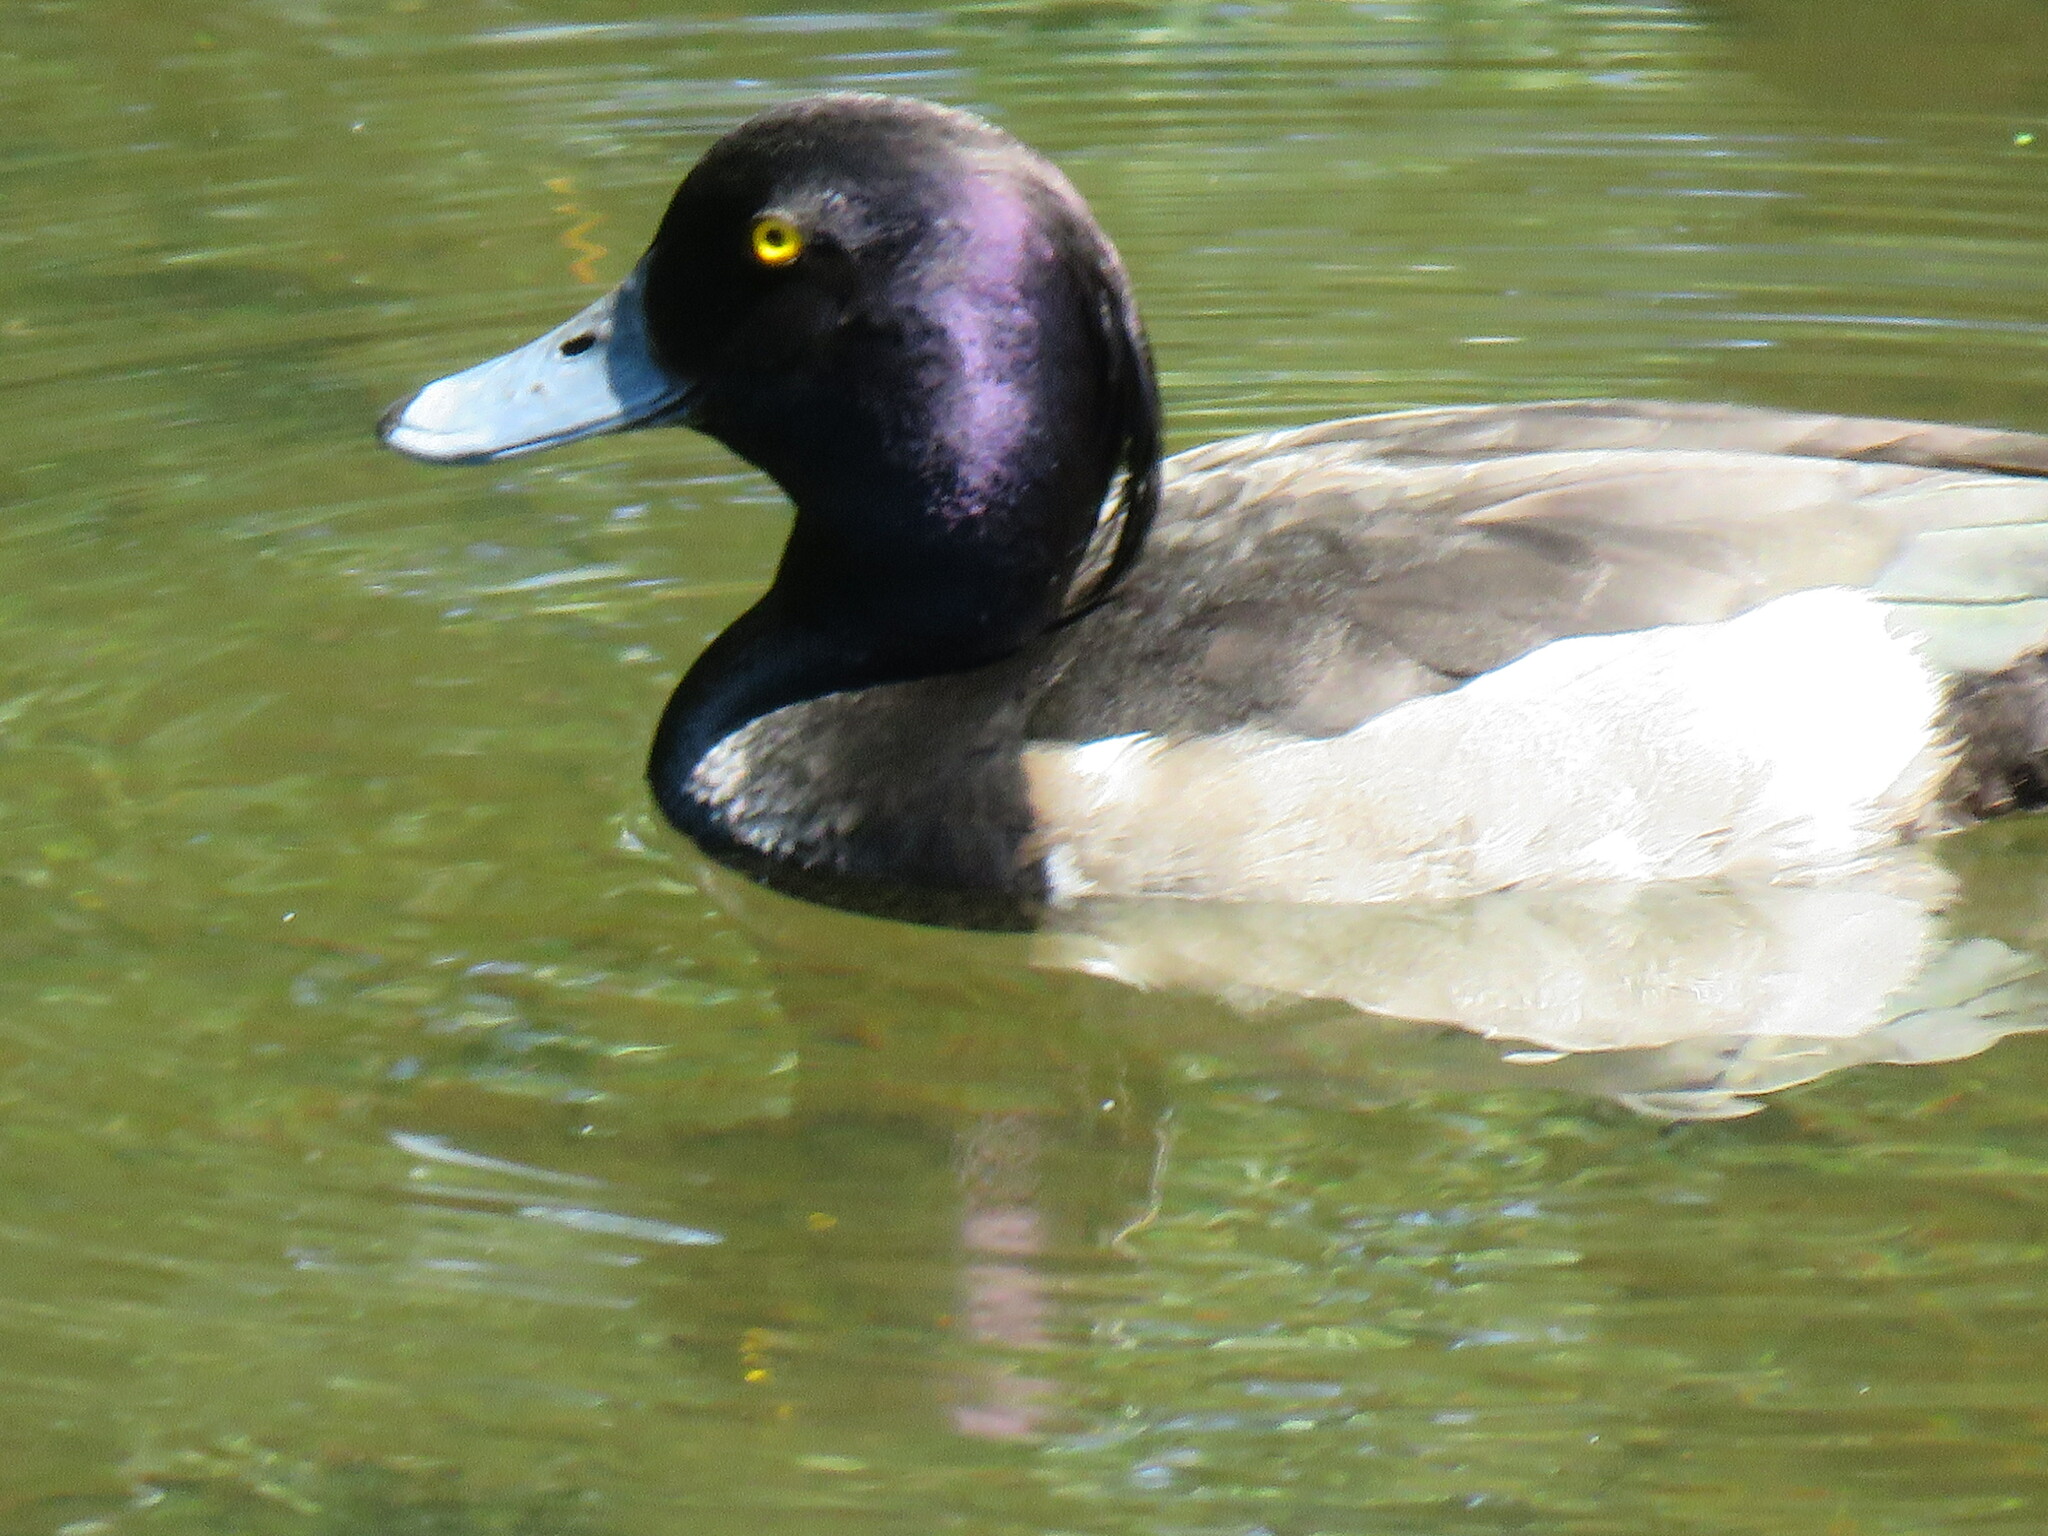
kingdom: Animalia
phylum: Chordata
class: Aves
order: Anseriformes
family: Anatidae
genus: Aythya
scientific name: Aythya fuligula
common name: Tufted duck
